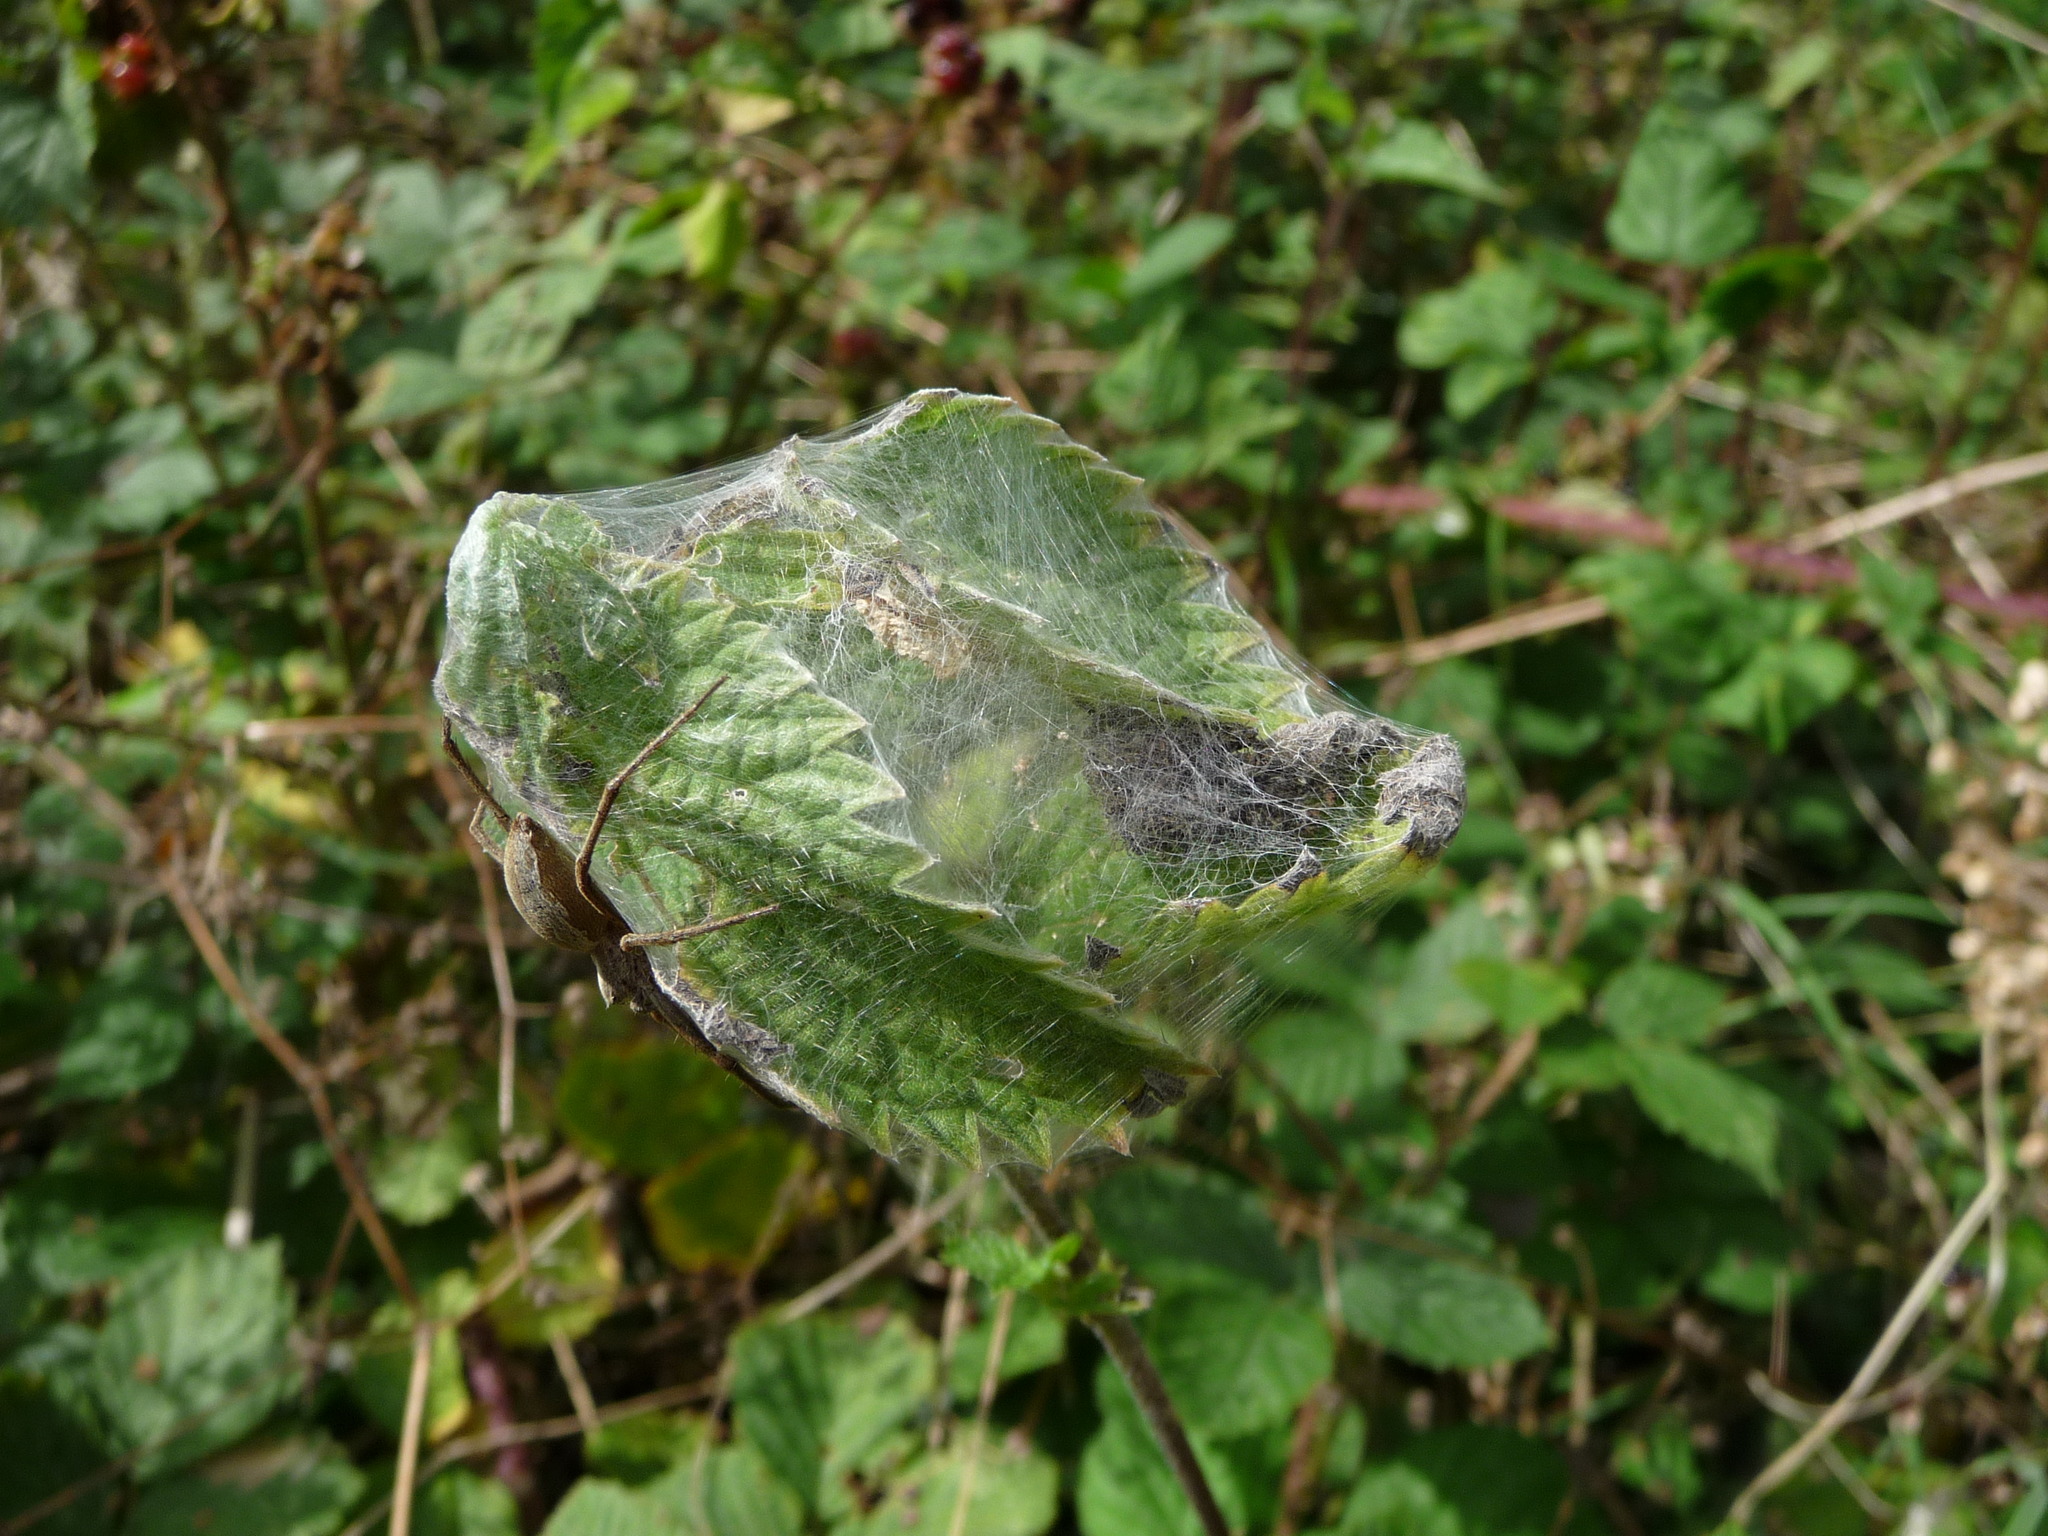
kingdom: Animalia
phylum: Arthropoda
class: Arachnida
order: Araneae
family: Pisauridae
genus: Pisaura
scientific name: Pisaura mirabilis
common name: Tent spider
